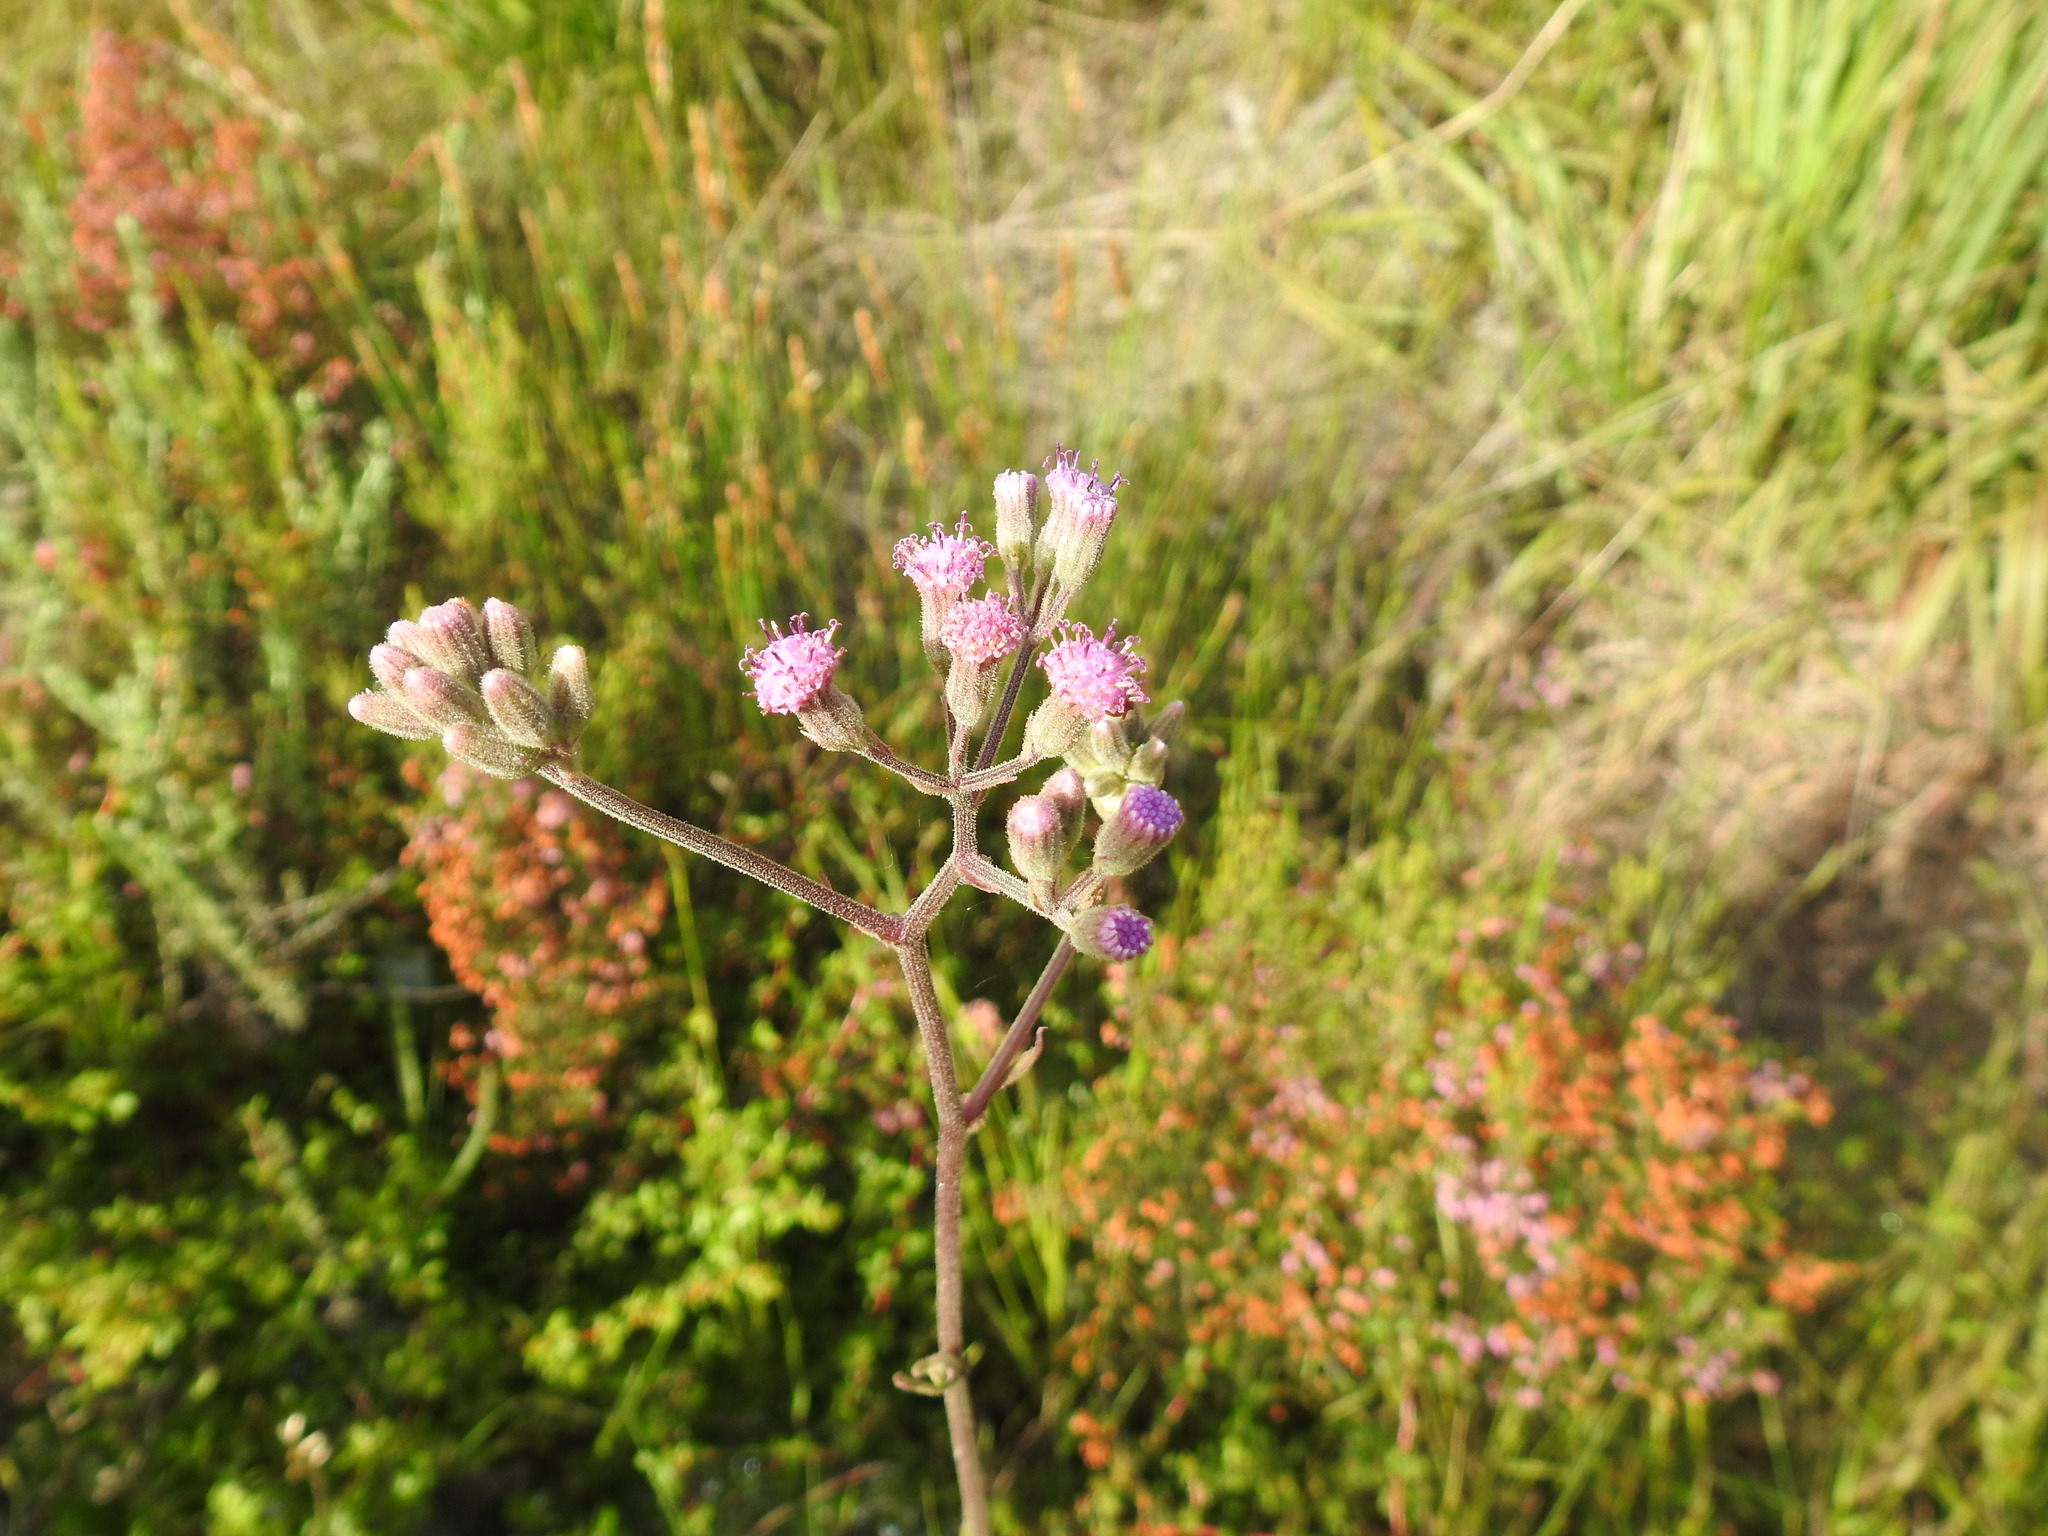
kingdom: Plantae
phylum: Tracheophyta
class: Magnoliopsida
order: Asterales
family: Asteraceae
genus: Senecio
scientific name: Senecio erubescens
